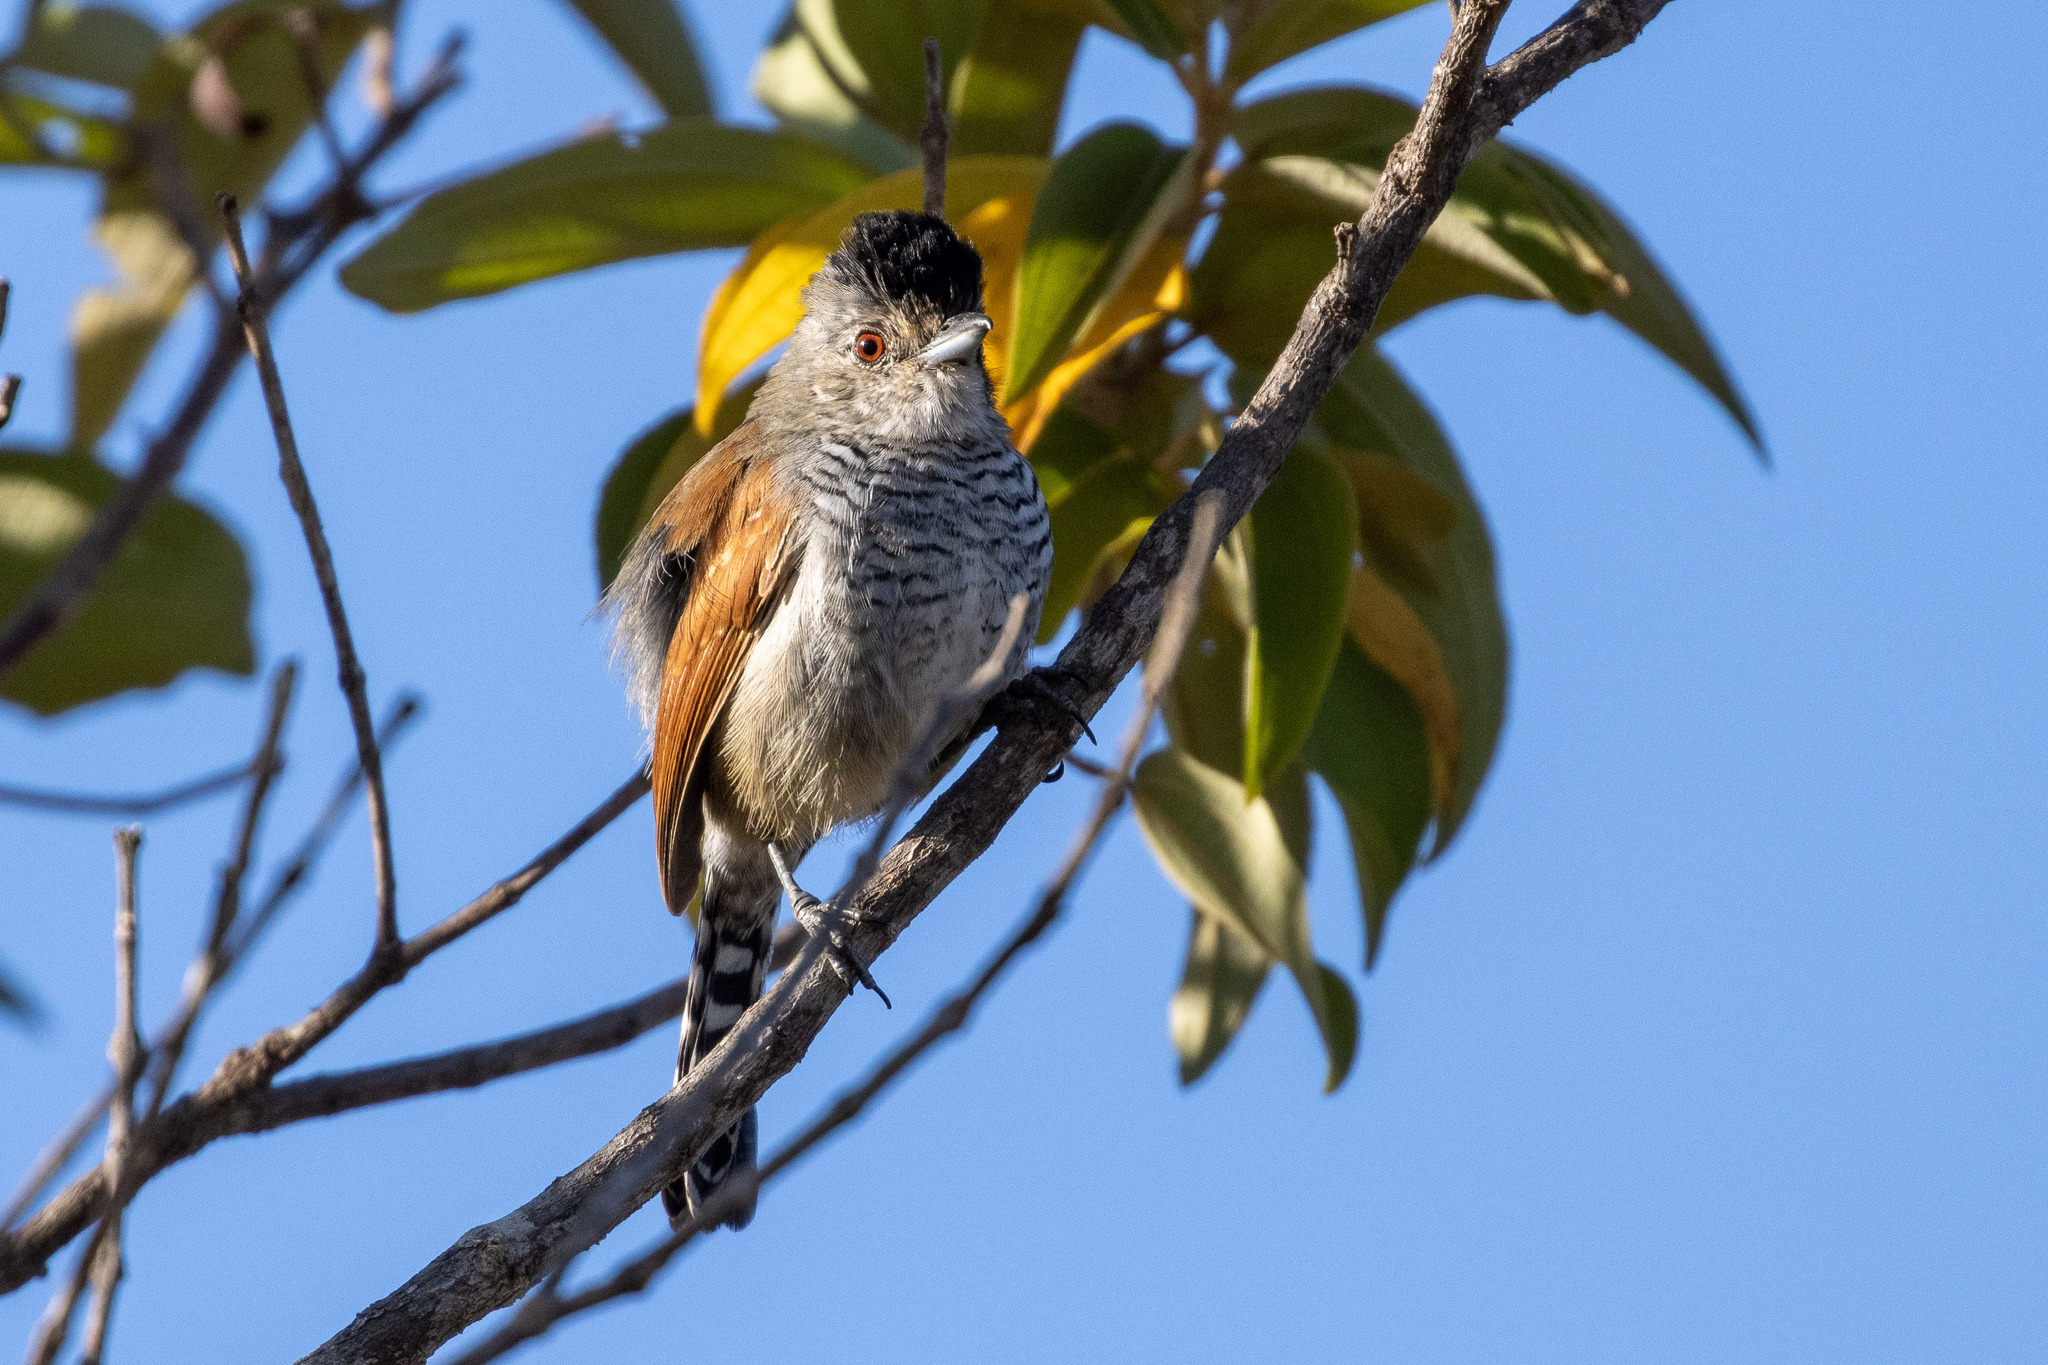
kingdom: Animalia
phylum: Chordata
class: Aves
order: Passeriformes
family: Thamnophilidae
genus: Thamnophilus
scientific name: Thamnophilus torquatus
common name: Rufous-winged antshrike
